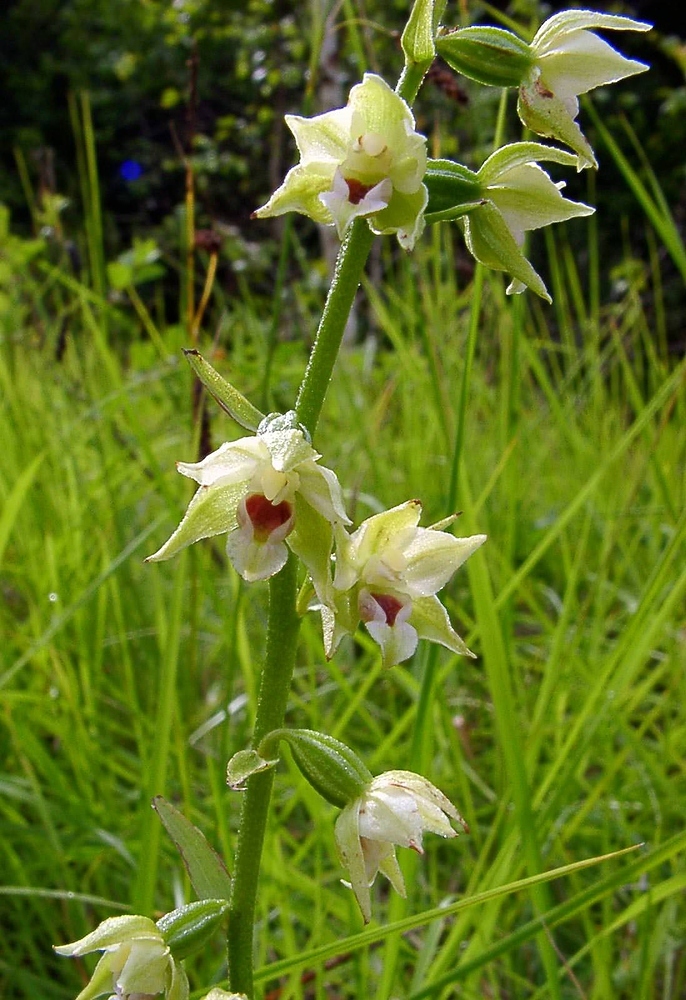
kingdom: Plantae
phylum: Tracheophyta
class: Liliopsida
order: Asparagales
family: Orchidaceae
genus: Epipactis
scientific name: Epipactis muelleri
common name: Mueller's epipactis
